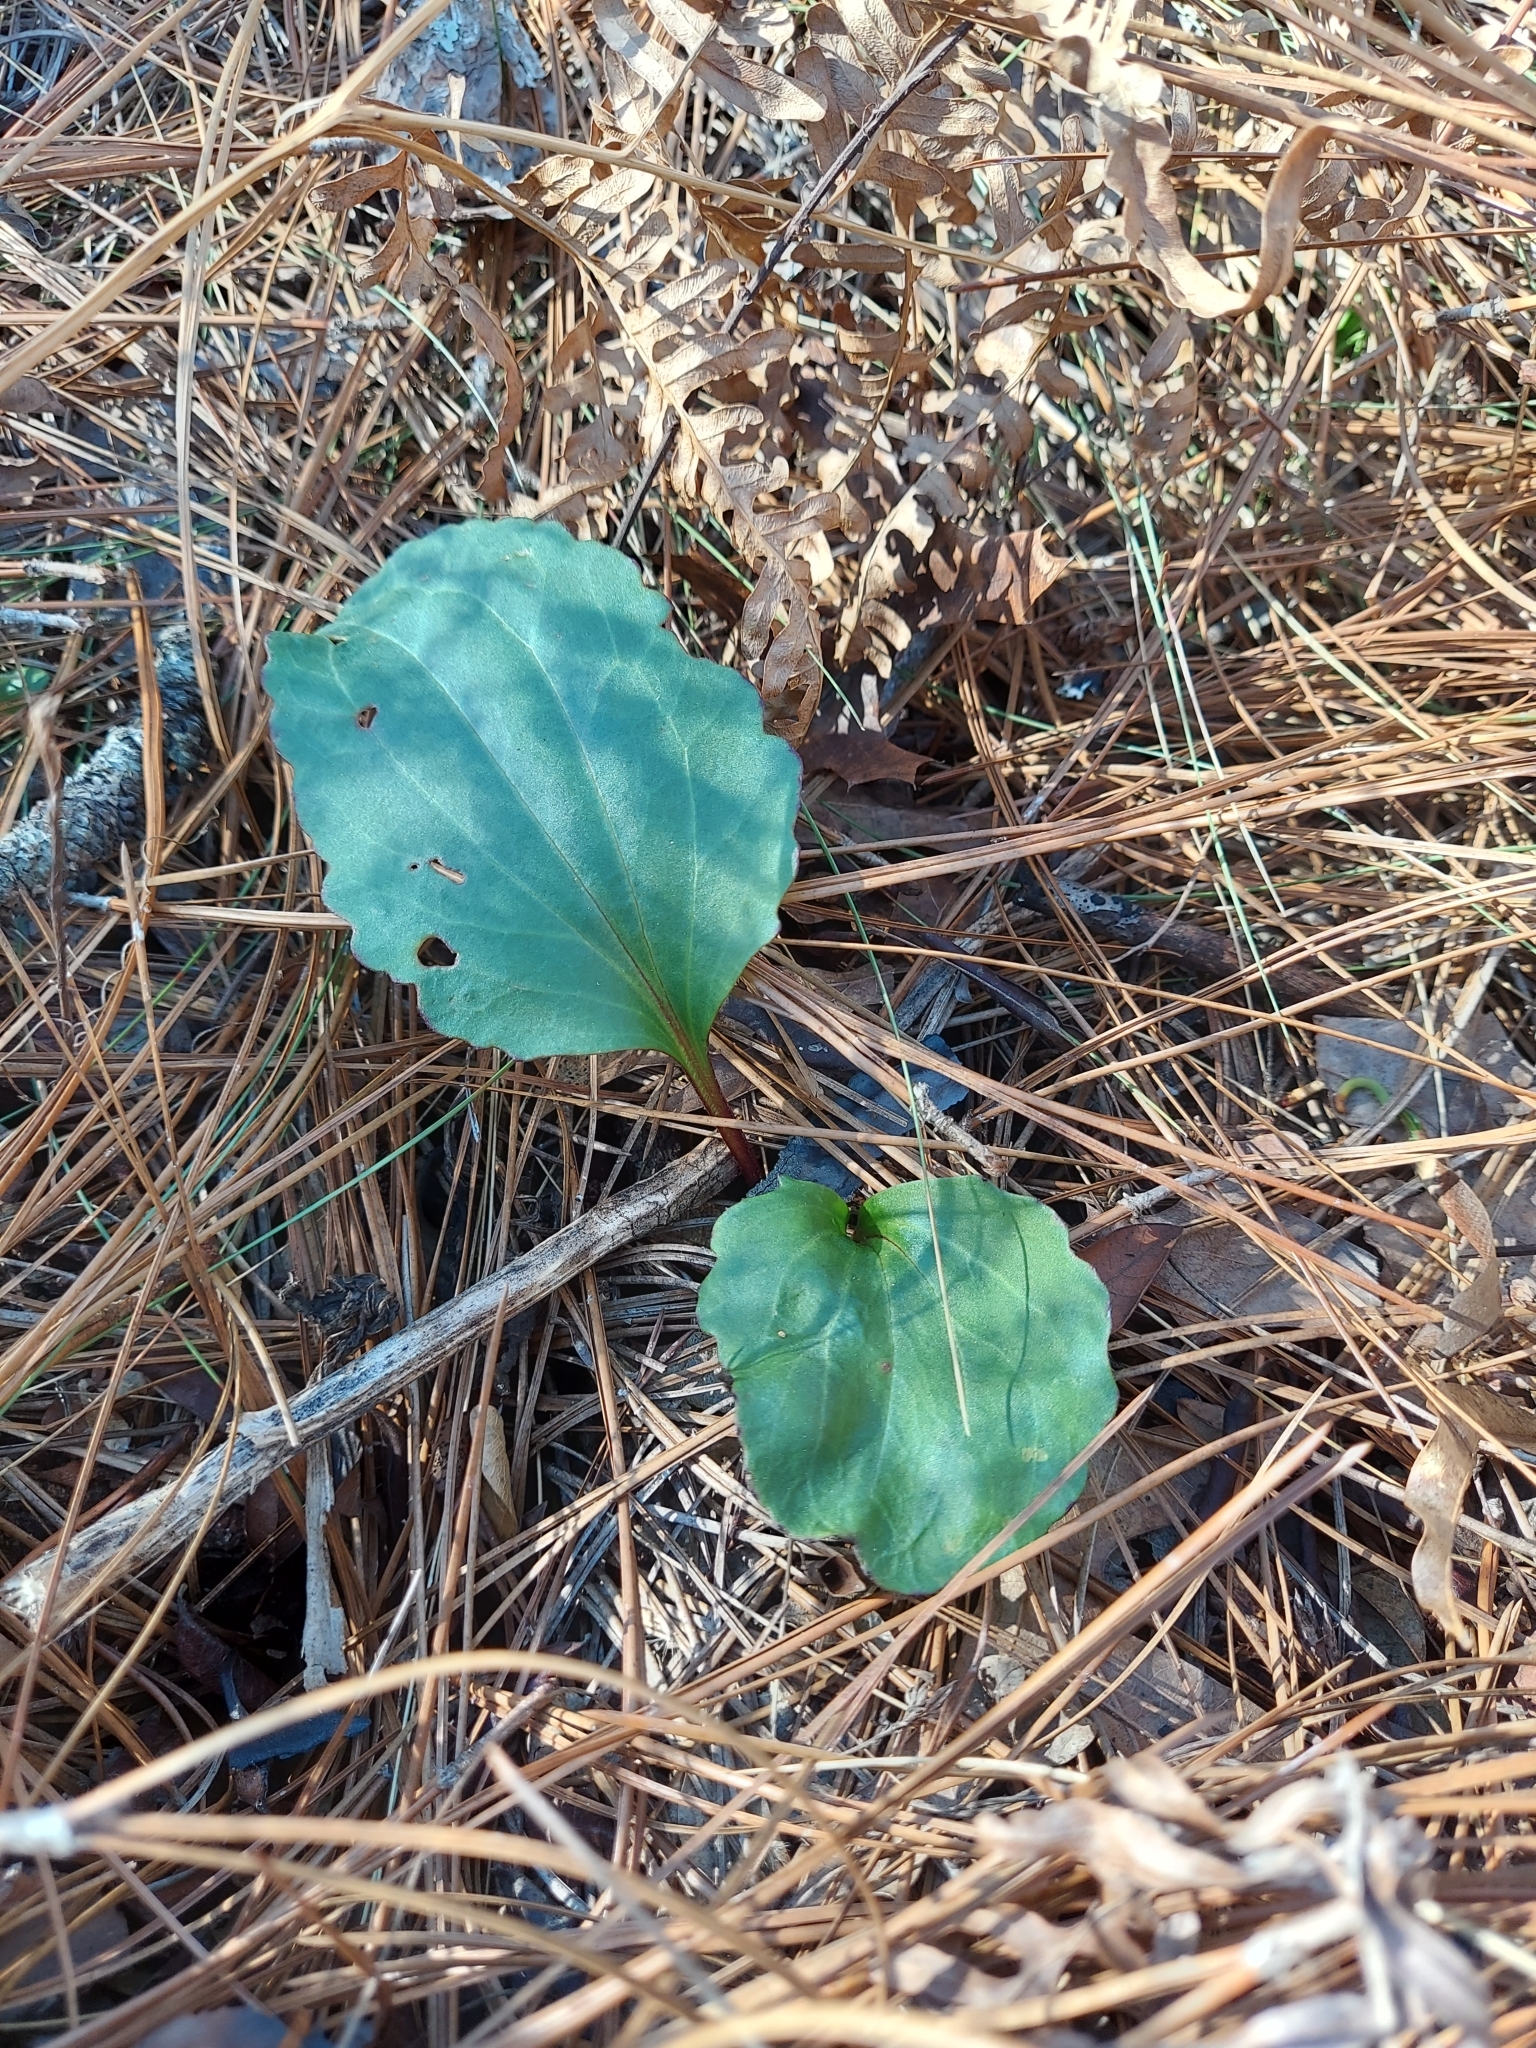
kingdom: Plantae
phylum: Tracheophyta
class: Magnoliopsida
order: Asterales
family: Asteraceae
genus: Arnoglossum
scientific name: Arnoglossum floridanum
